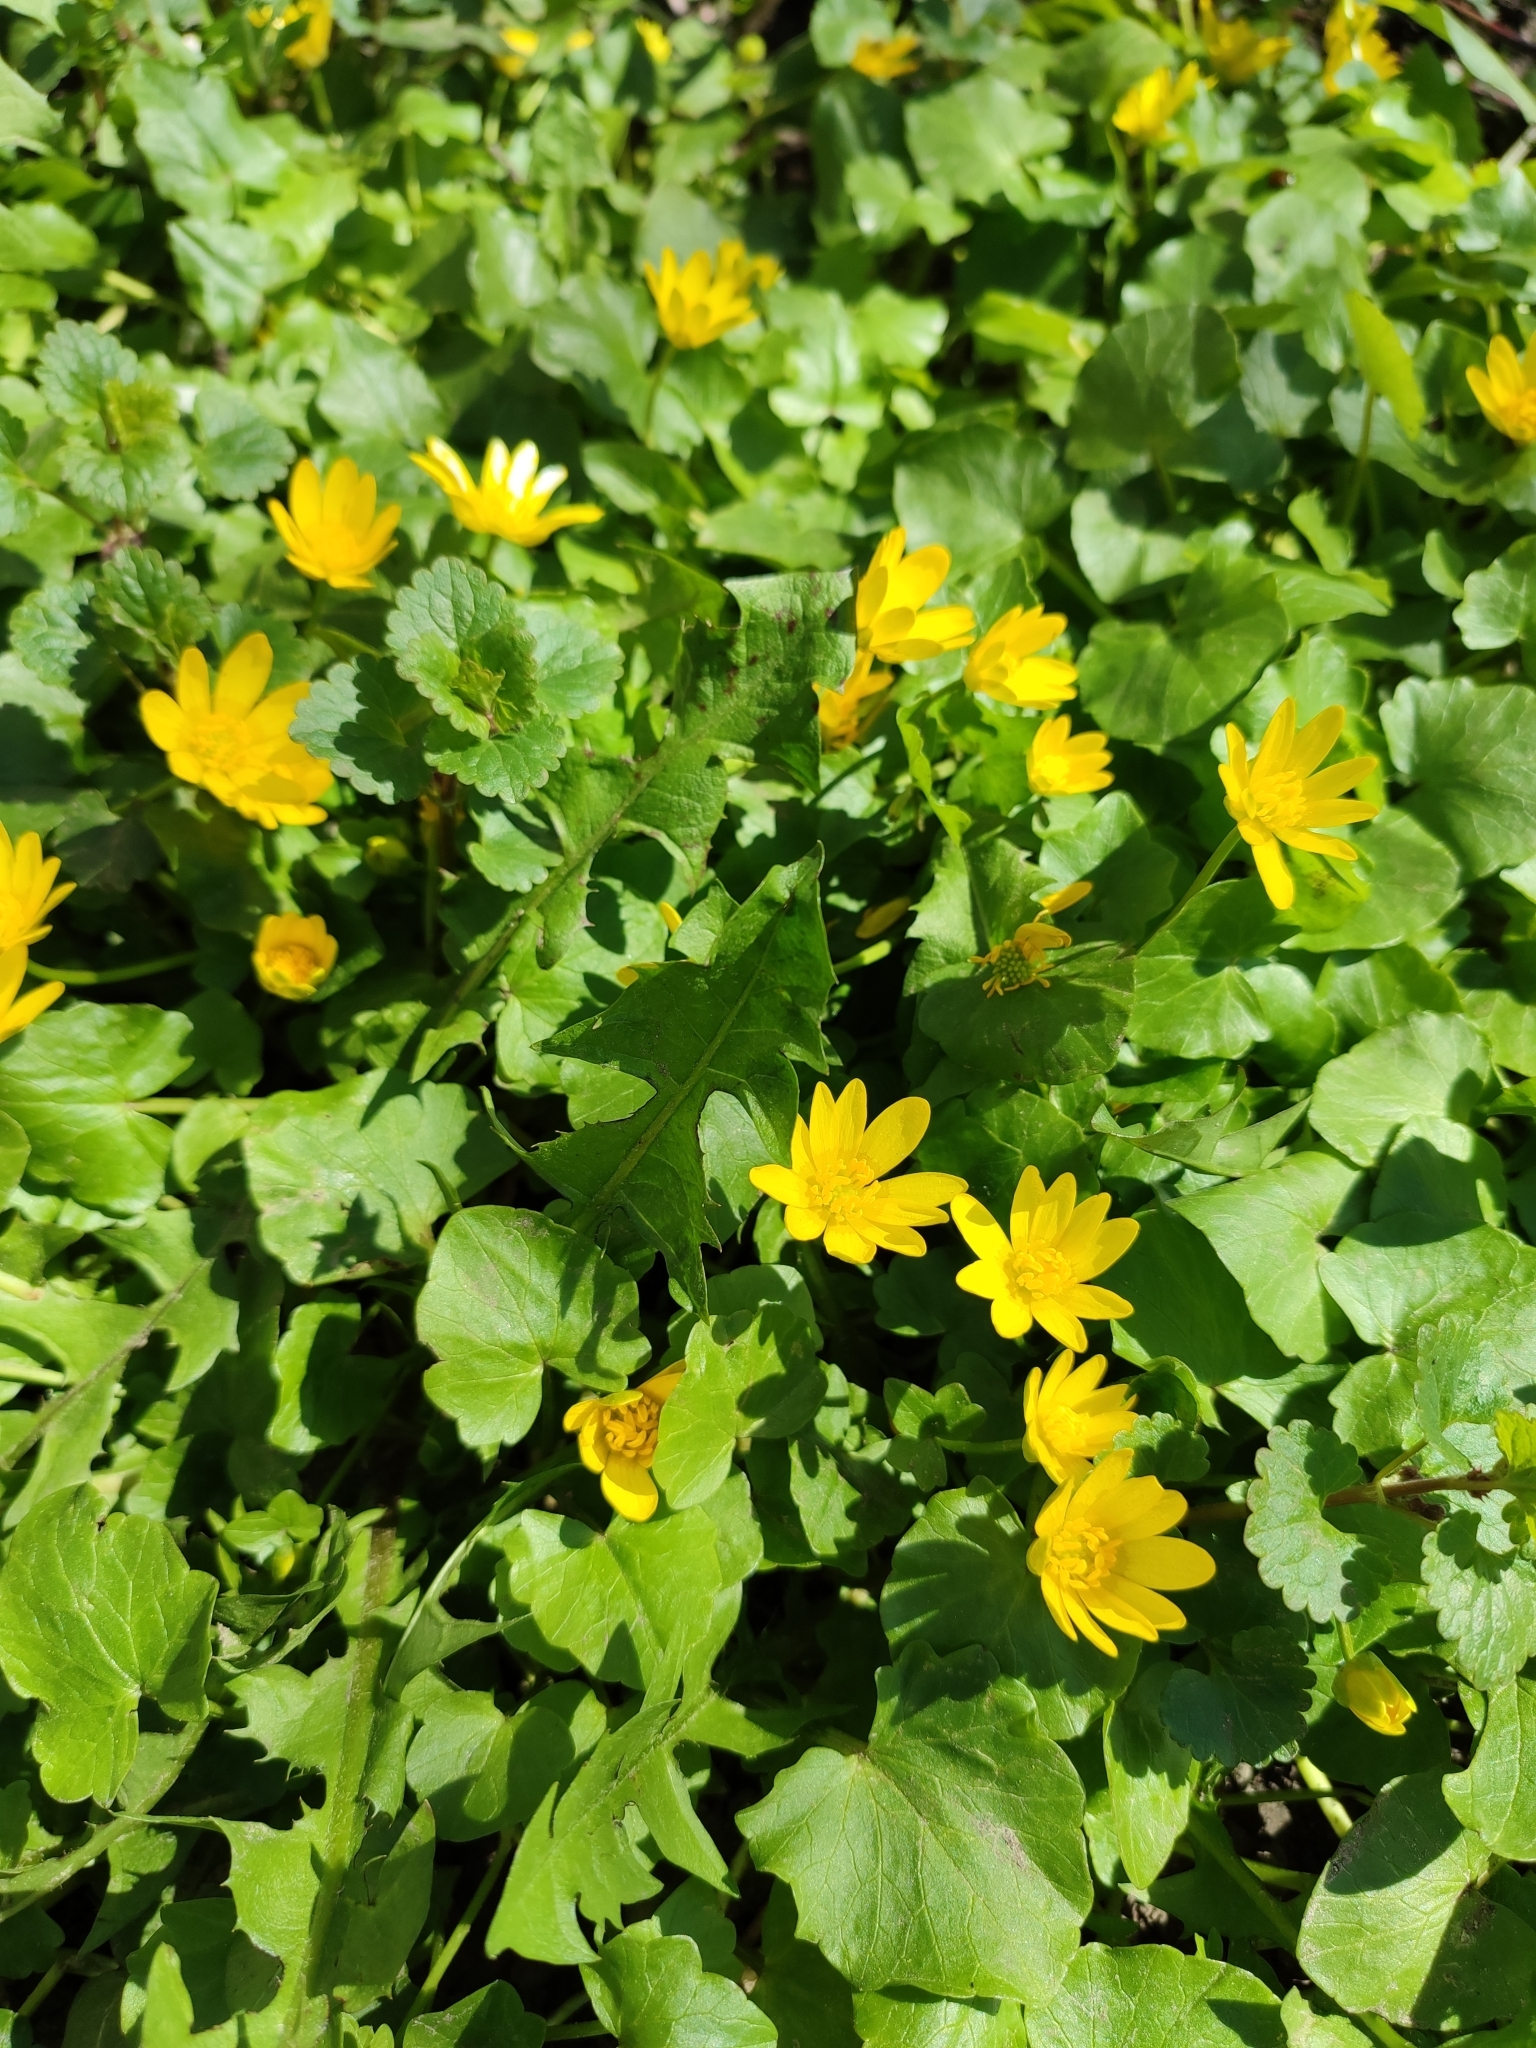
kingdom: Plantae
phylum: Tracheophyta
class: Magnoliopsida
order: Ranunculales
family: Ranunculaceae
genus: Ficaria
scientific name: Ficaria verna
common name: Lesser celandine
